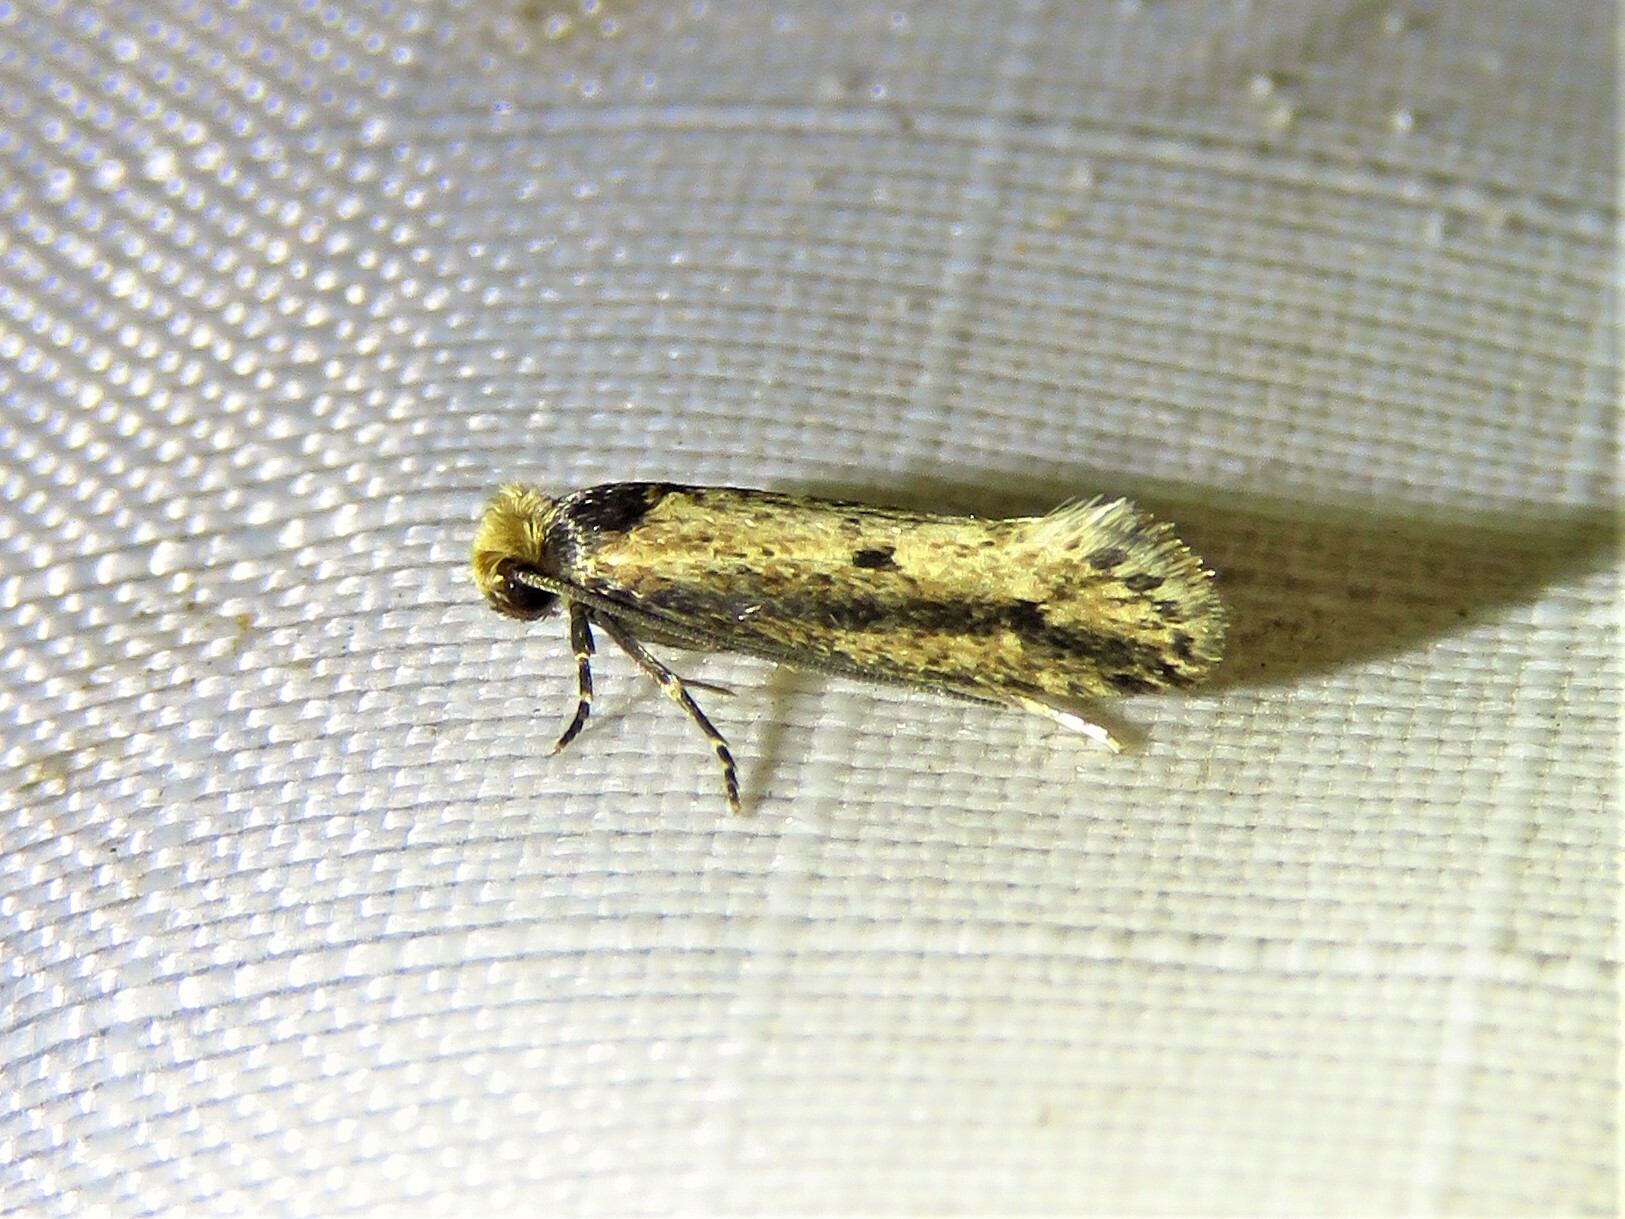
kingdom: Animalia
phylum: Arthropoda
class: Insecta
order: Lepidoptera
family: Tineidae
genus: Tinea
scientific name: Tinea apicimaculella
